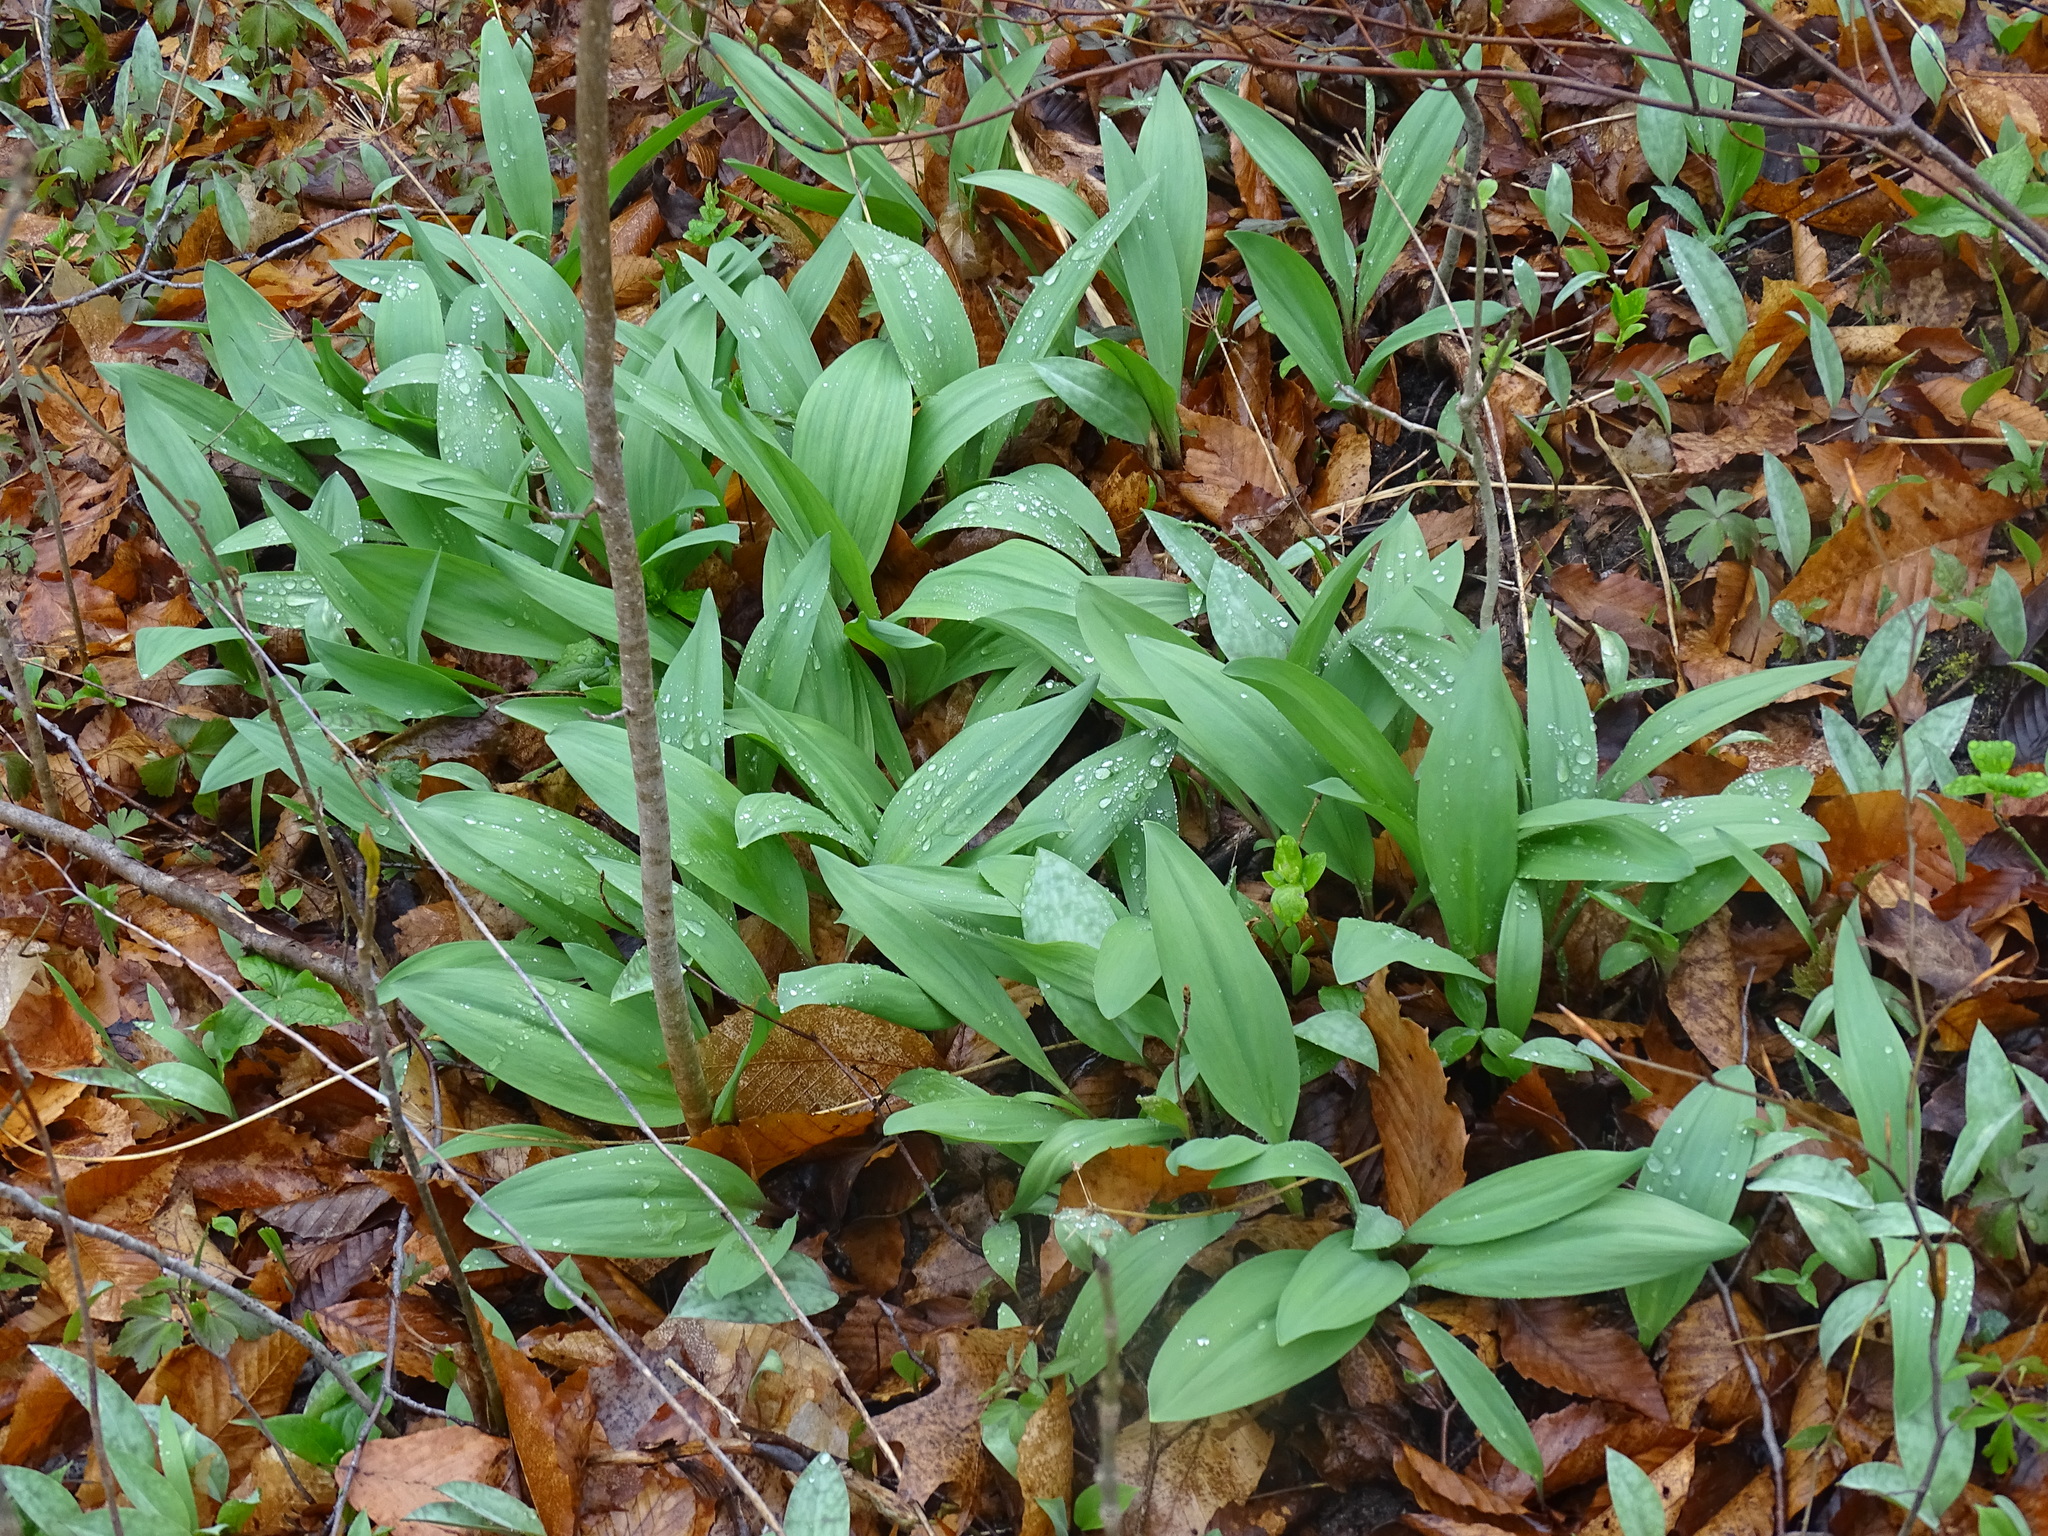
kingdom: Plantae
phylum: Tracheophyta
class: Liliopsida
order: Asparagales
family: Amaryllidaceae
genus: Allium
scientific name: Allium tricoccum
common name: Ramp
